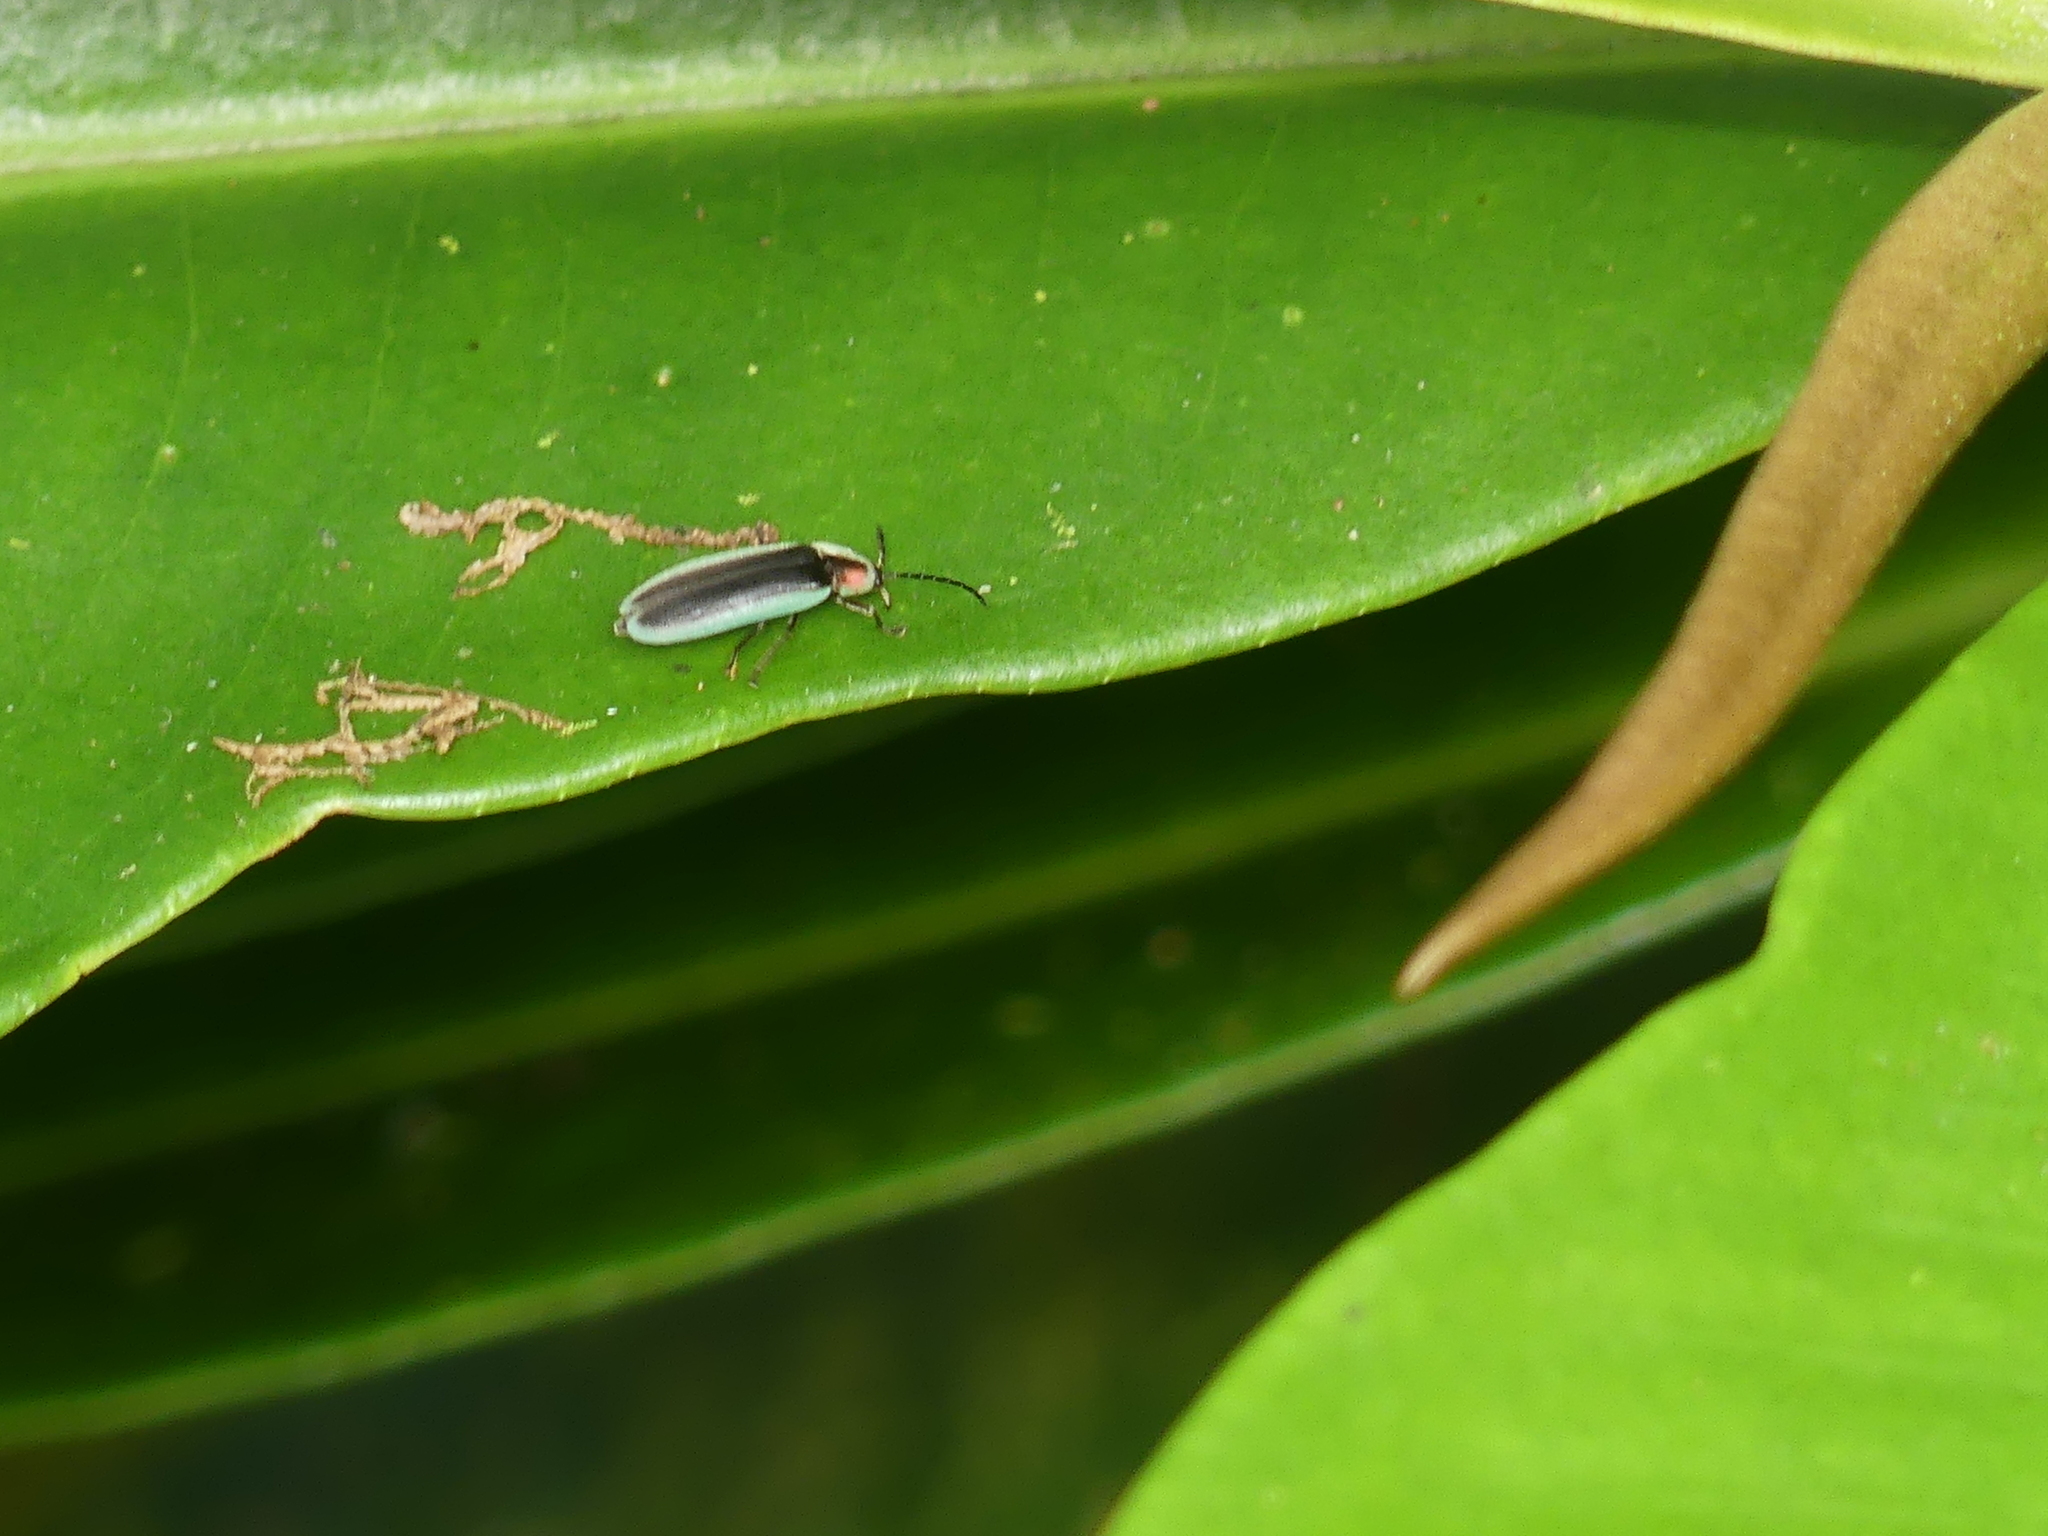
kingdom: Animalia
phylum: Arthropoda
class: Insecta
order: Coleoptera
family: Lampyridae
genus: Lucidota
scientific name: Lucidota amabilis
